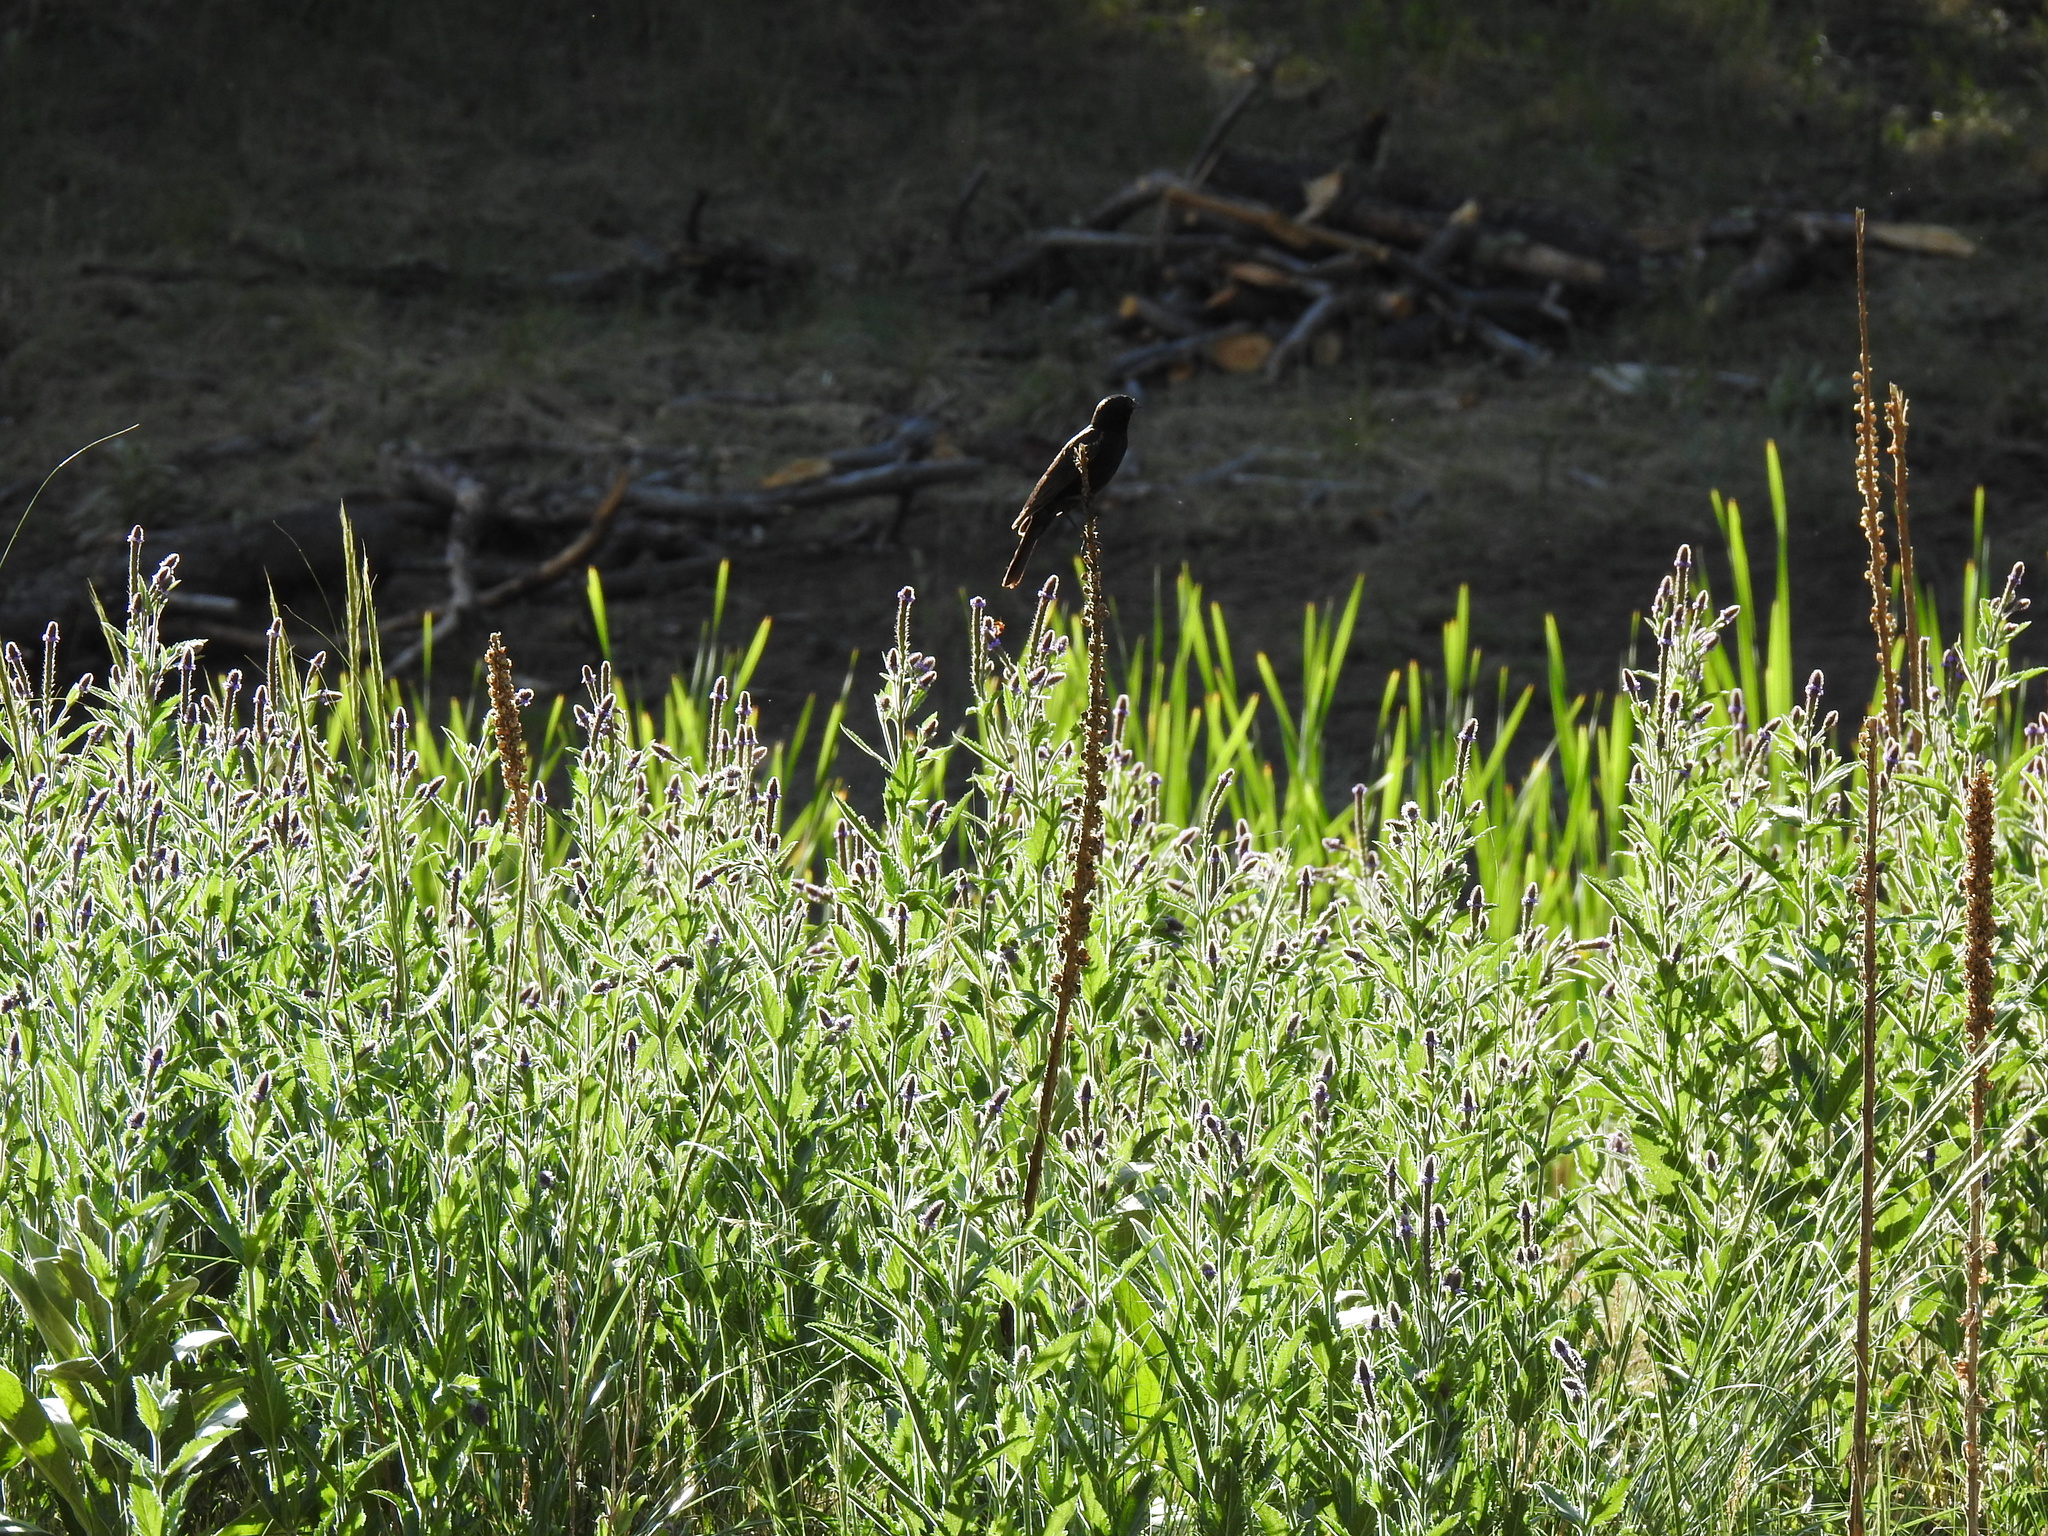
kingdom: Animalia
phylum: Chordata
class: Aves
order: Passeriformes
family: Icteridae
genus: Agelaius
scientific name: Agelaius phoeniceus
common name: Red-winged blackbird
